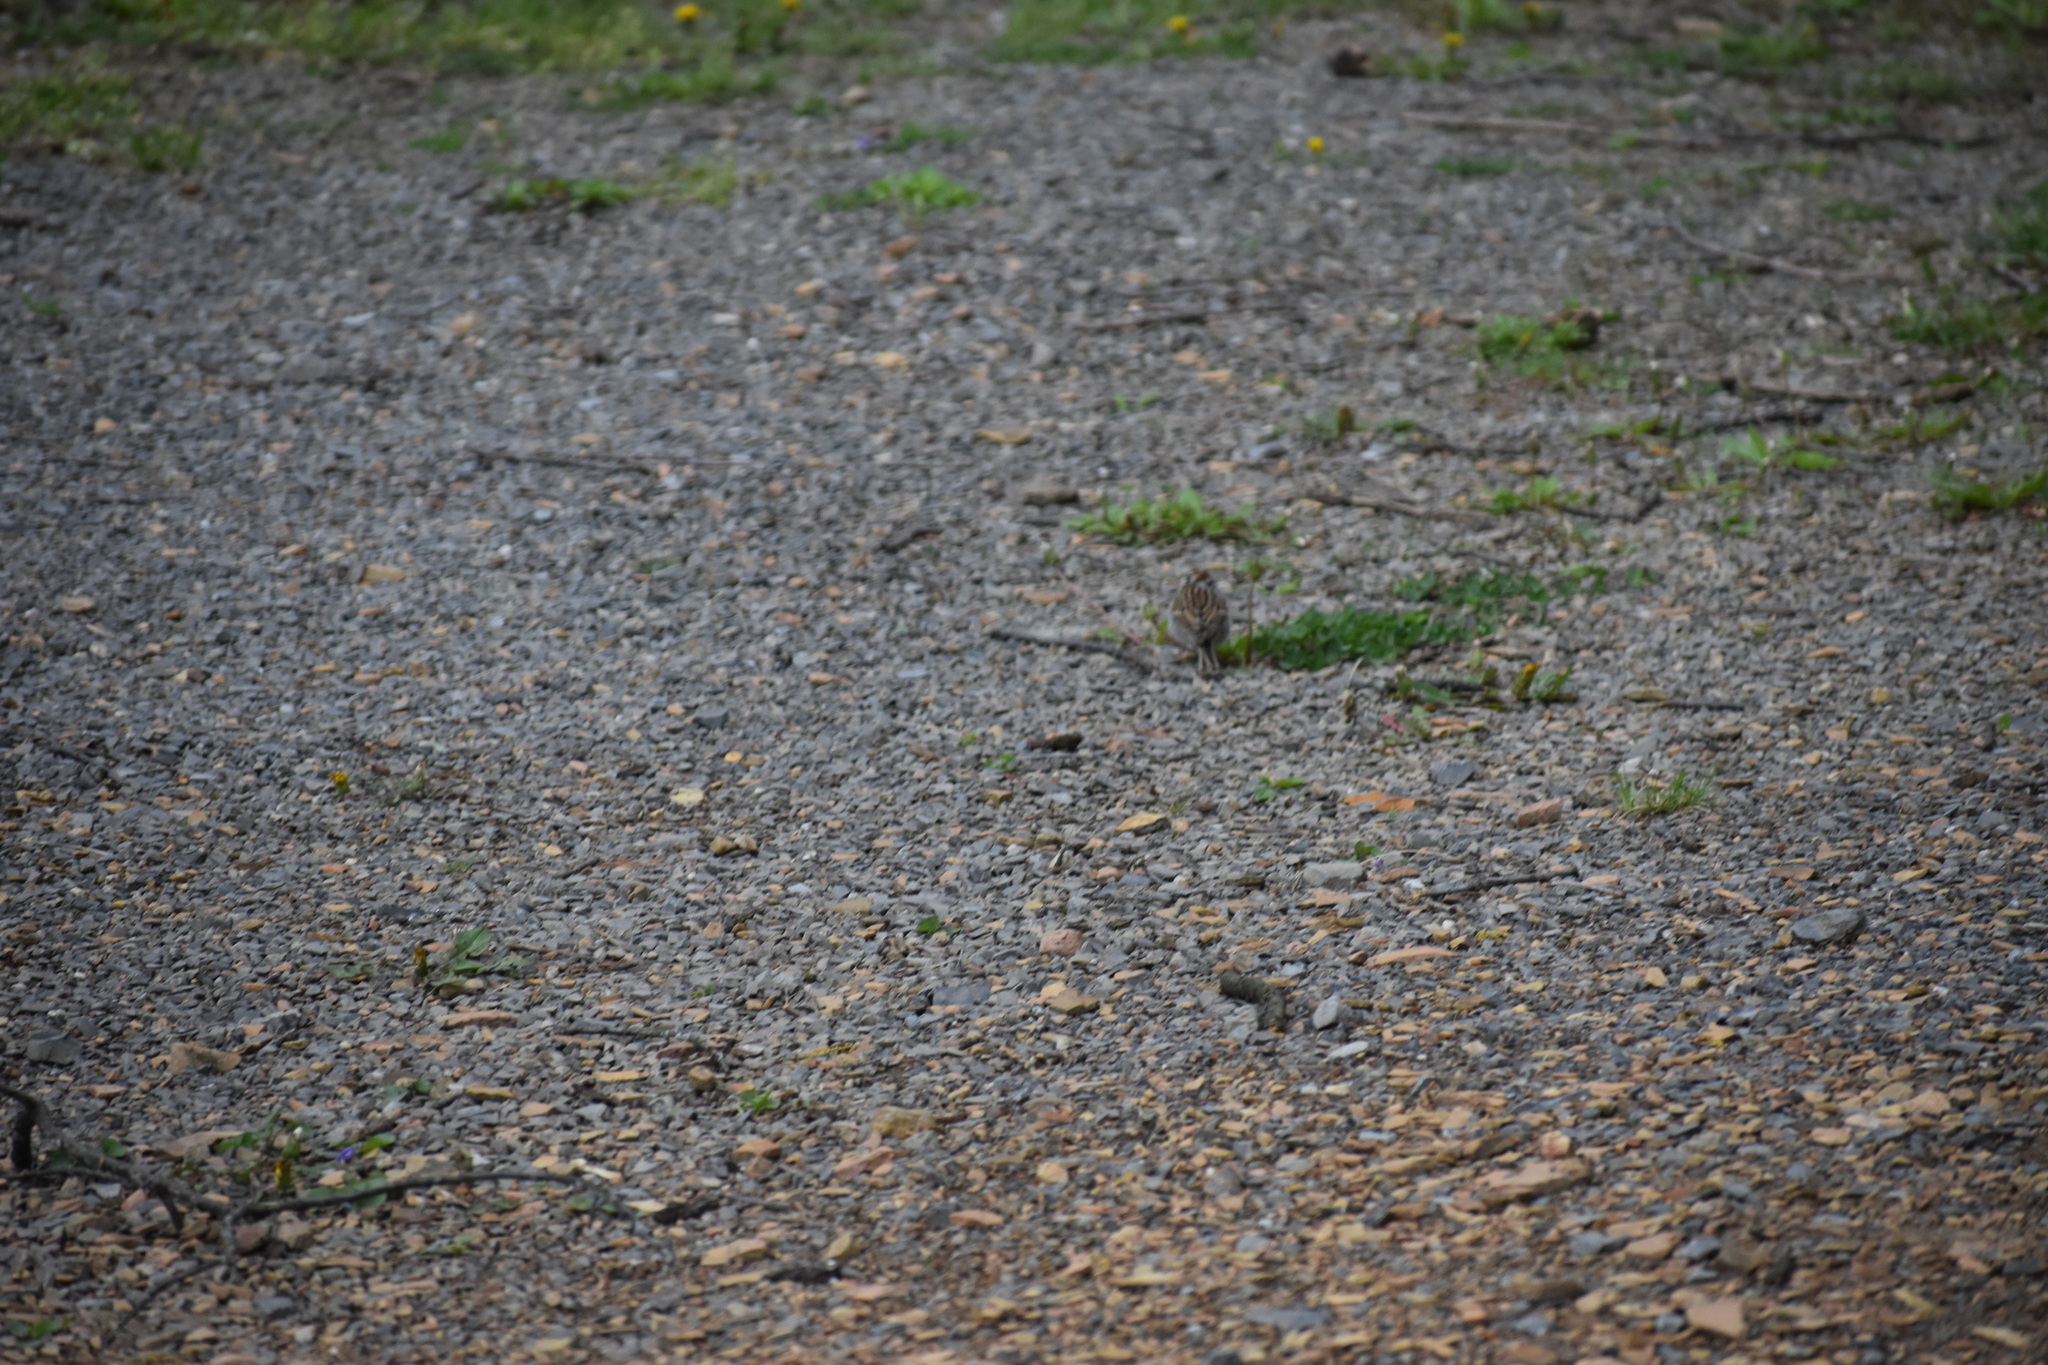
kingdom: Animalia
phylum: Chordata
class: Aves
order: Passeriformes
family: Passerellidae
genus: Spizella
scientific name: Spizella passerina
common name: Chipping sparrow
